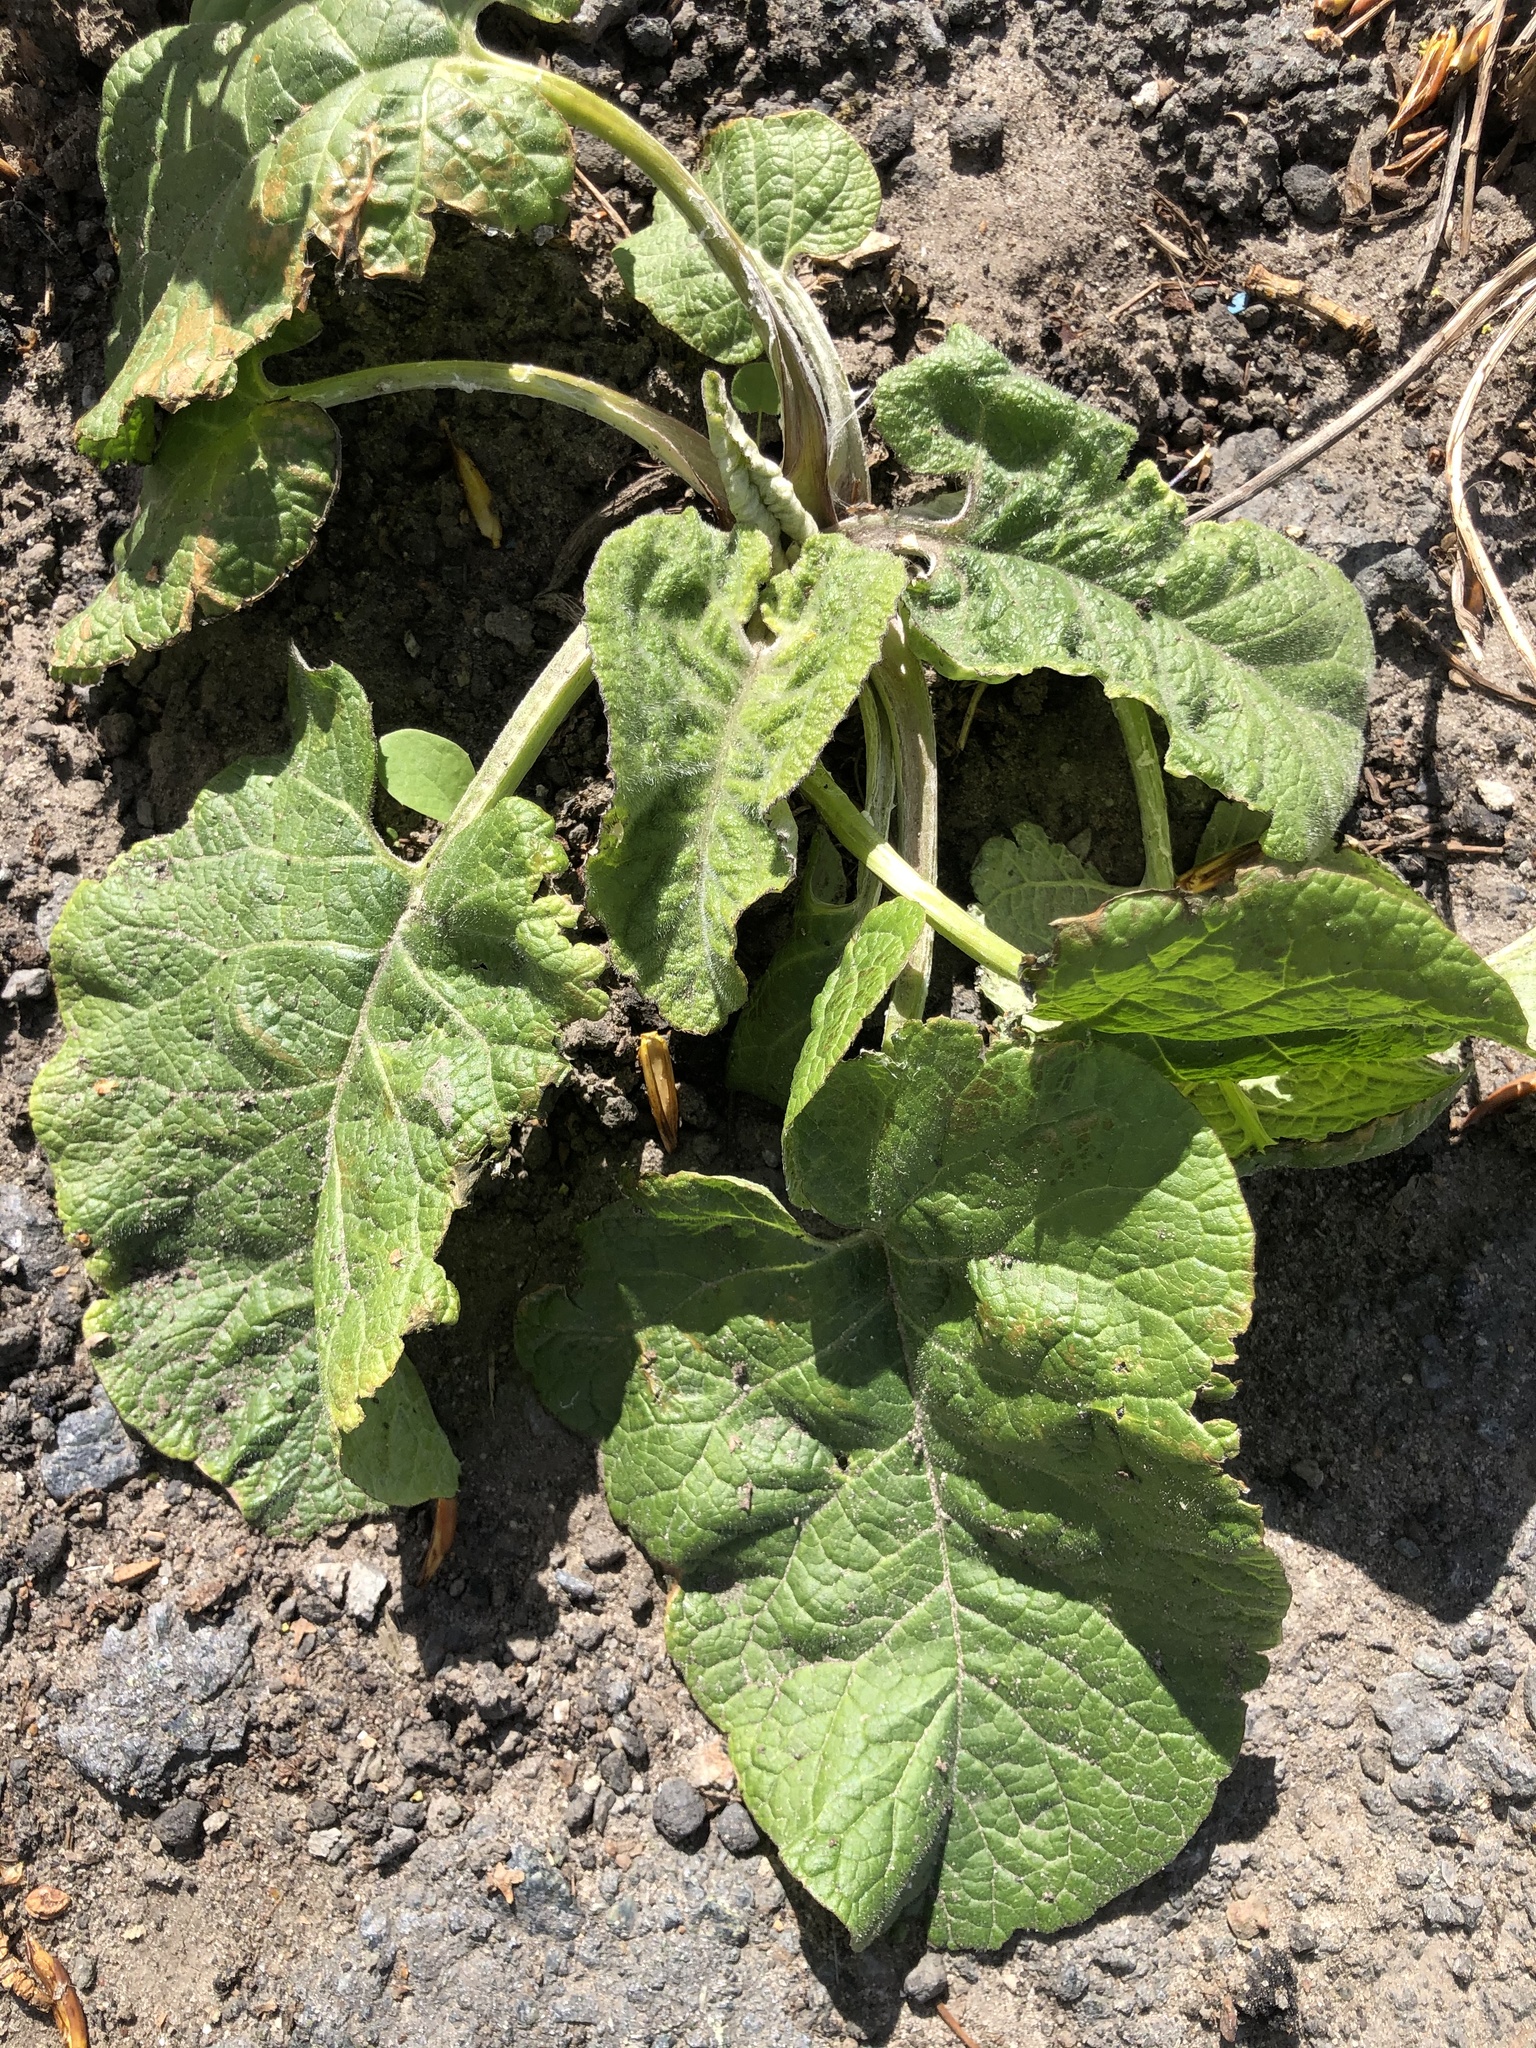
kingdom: Plantae
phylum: Tracheophyta
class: Magnoliopsida
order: Asterales
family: Asteraceae
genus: Arctium
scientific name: Arctium tomentosum
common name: Woolly burdock
